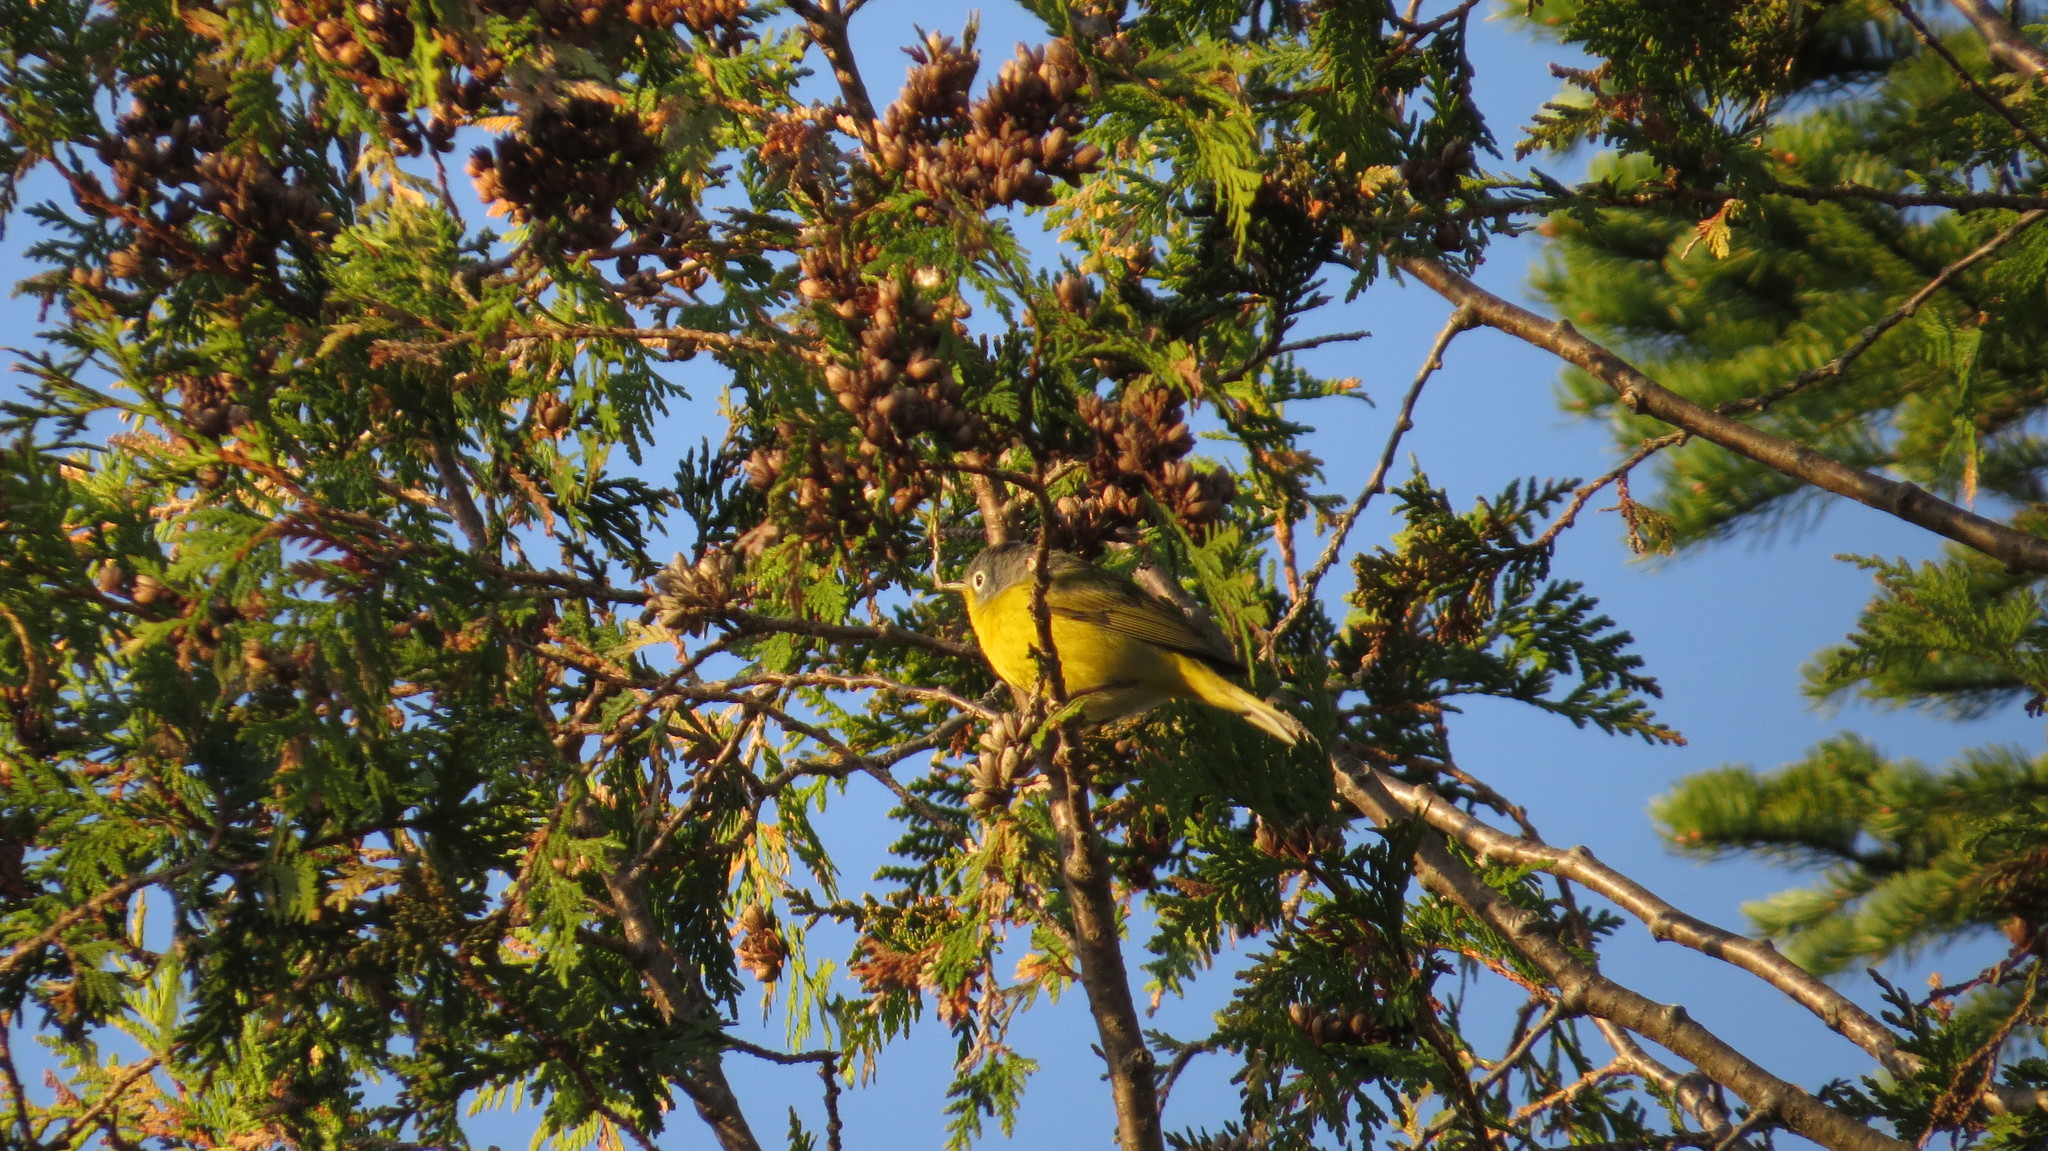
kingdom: Animalia
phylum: Chordata
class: Aves
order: Passeriformes
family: Parulidae
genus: Leiothlypis
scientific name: Leiothlypis ruficapilla
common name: Nashville warbler
